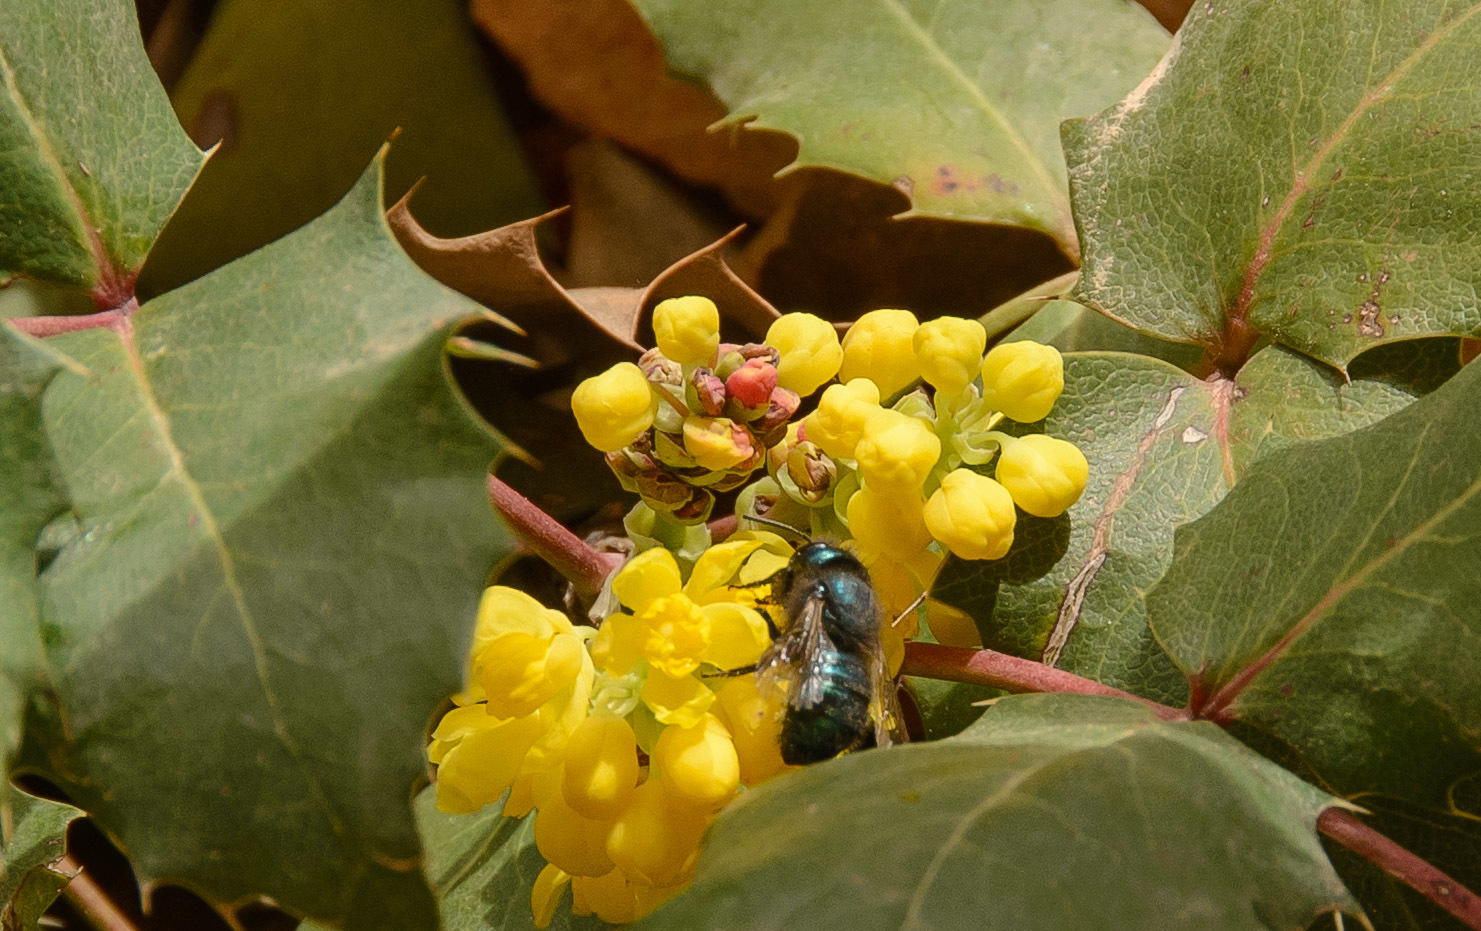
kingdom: Plantae
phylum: Tracheophyta
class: Magnoliopsida
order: Ranunculales
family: Berberidaceae
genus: Mahonia
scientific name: Mahonia repens
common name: Creeping oregon-grape
